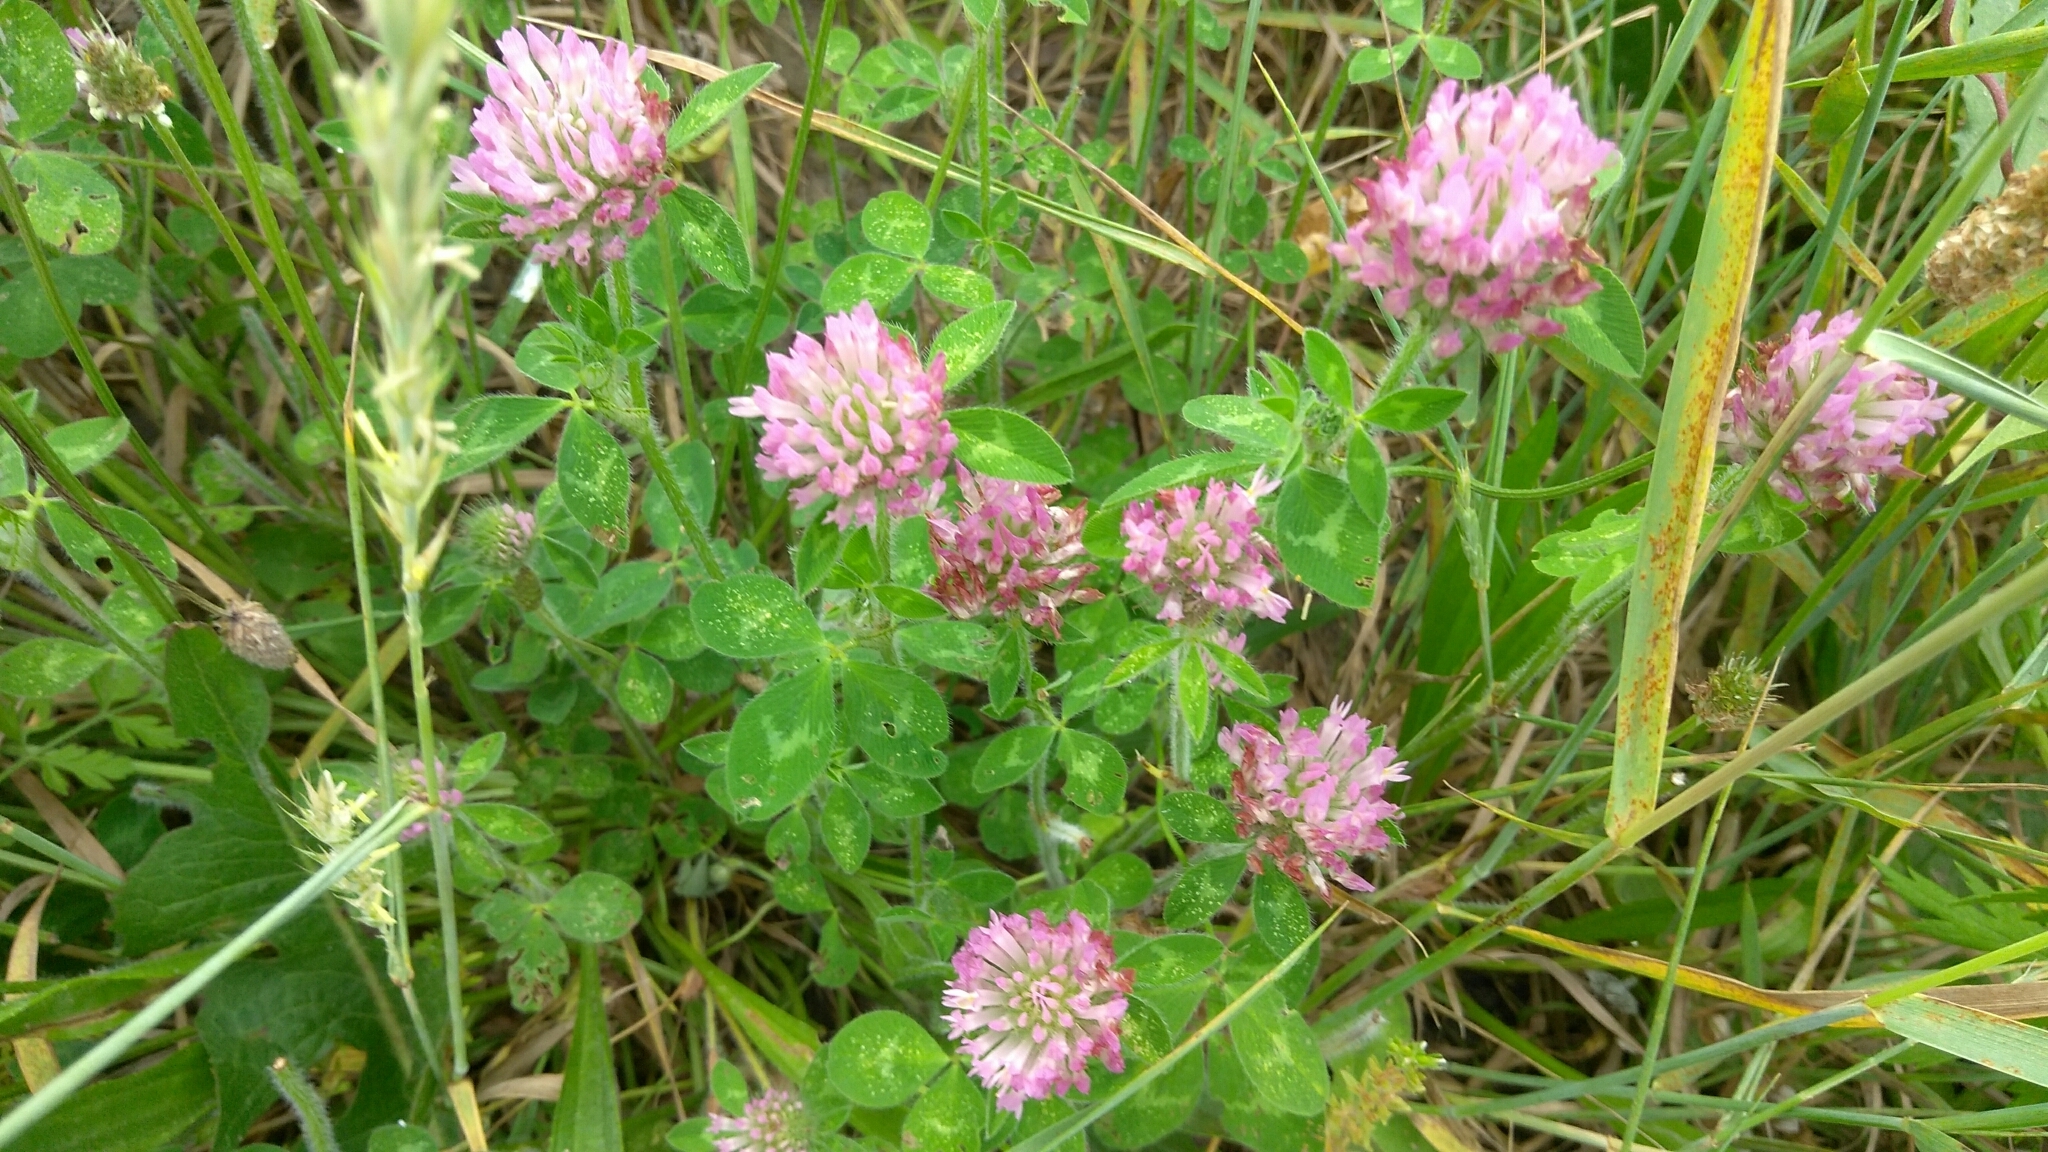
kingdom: Plantae
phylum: Tracheophyta
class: Magnoliopsida
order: Fabales
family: Fabaceae
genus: Trifolium
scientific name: Trifolium pratense
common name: Red clover
